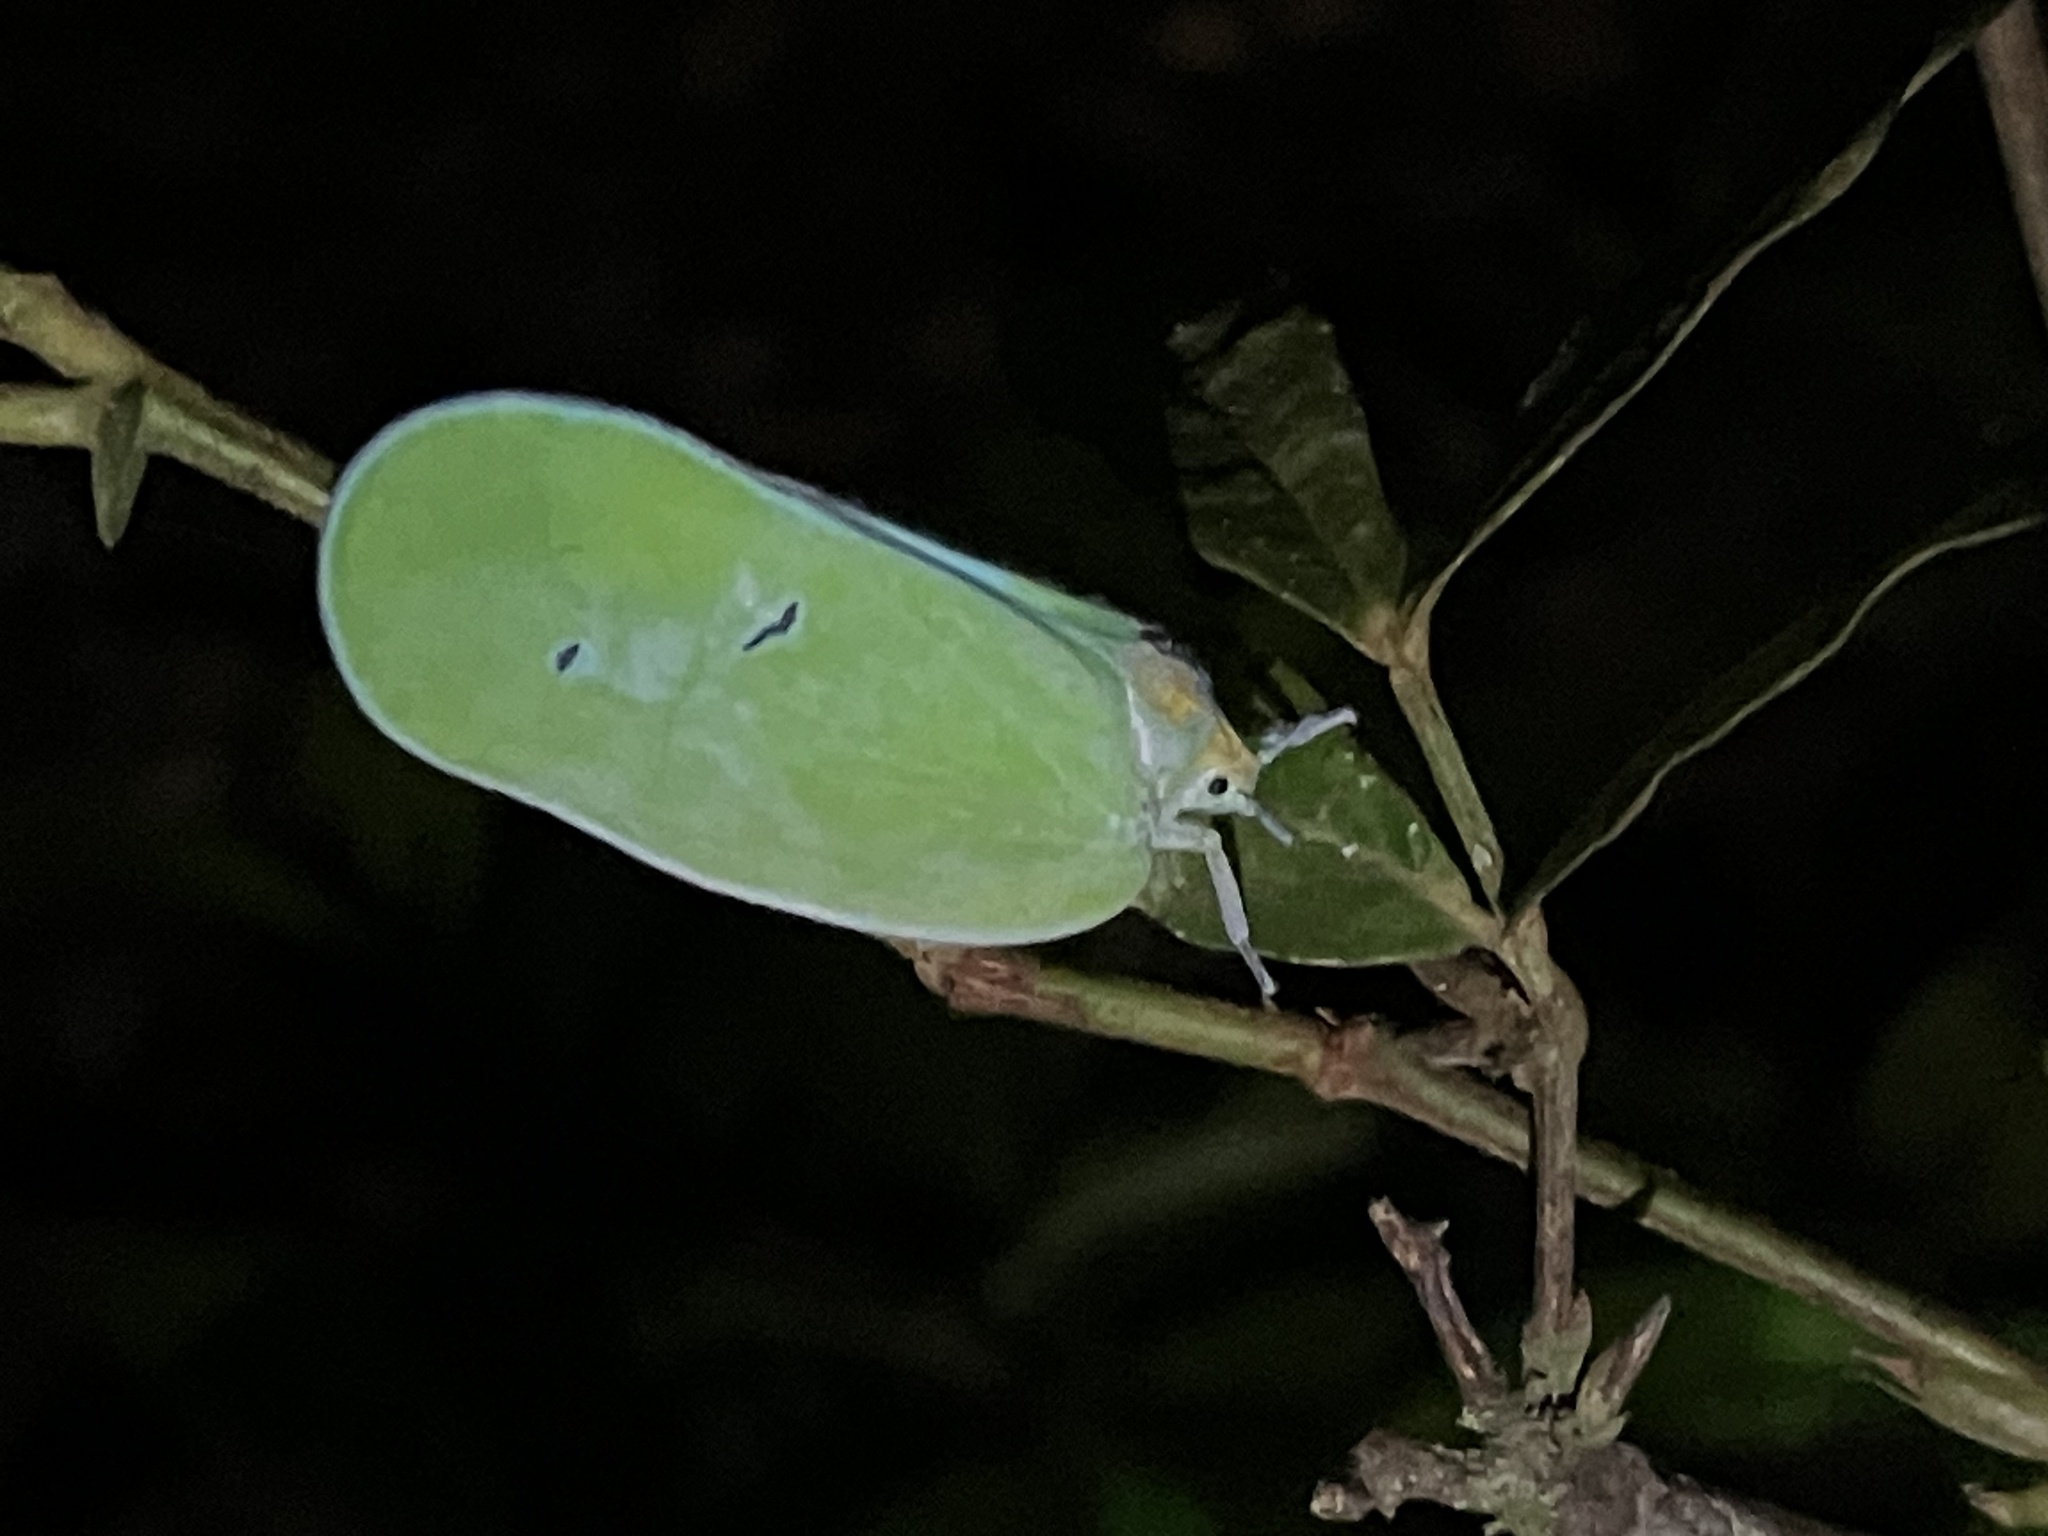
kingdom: Animalia
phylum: Arthropoda
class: Insecta
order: Hemiptera
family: Flatidae
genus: Flatida
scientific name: Flatida viridula
